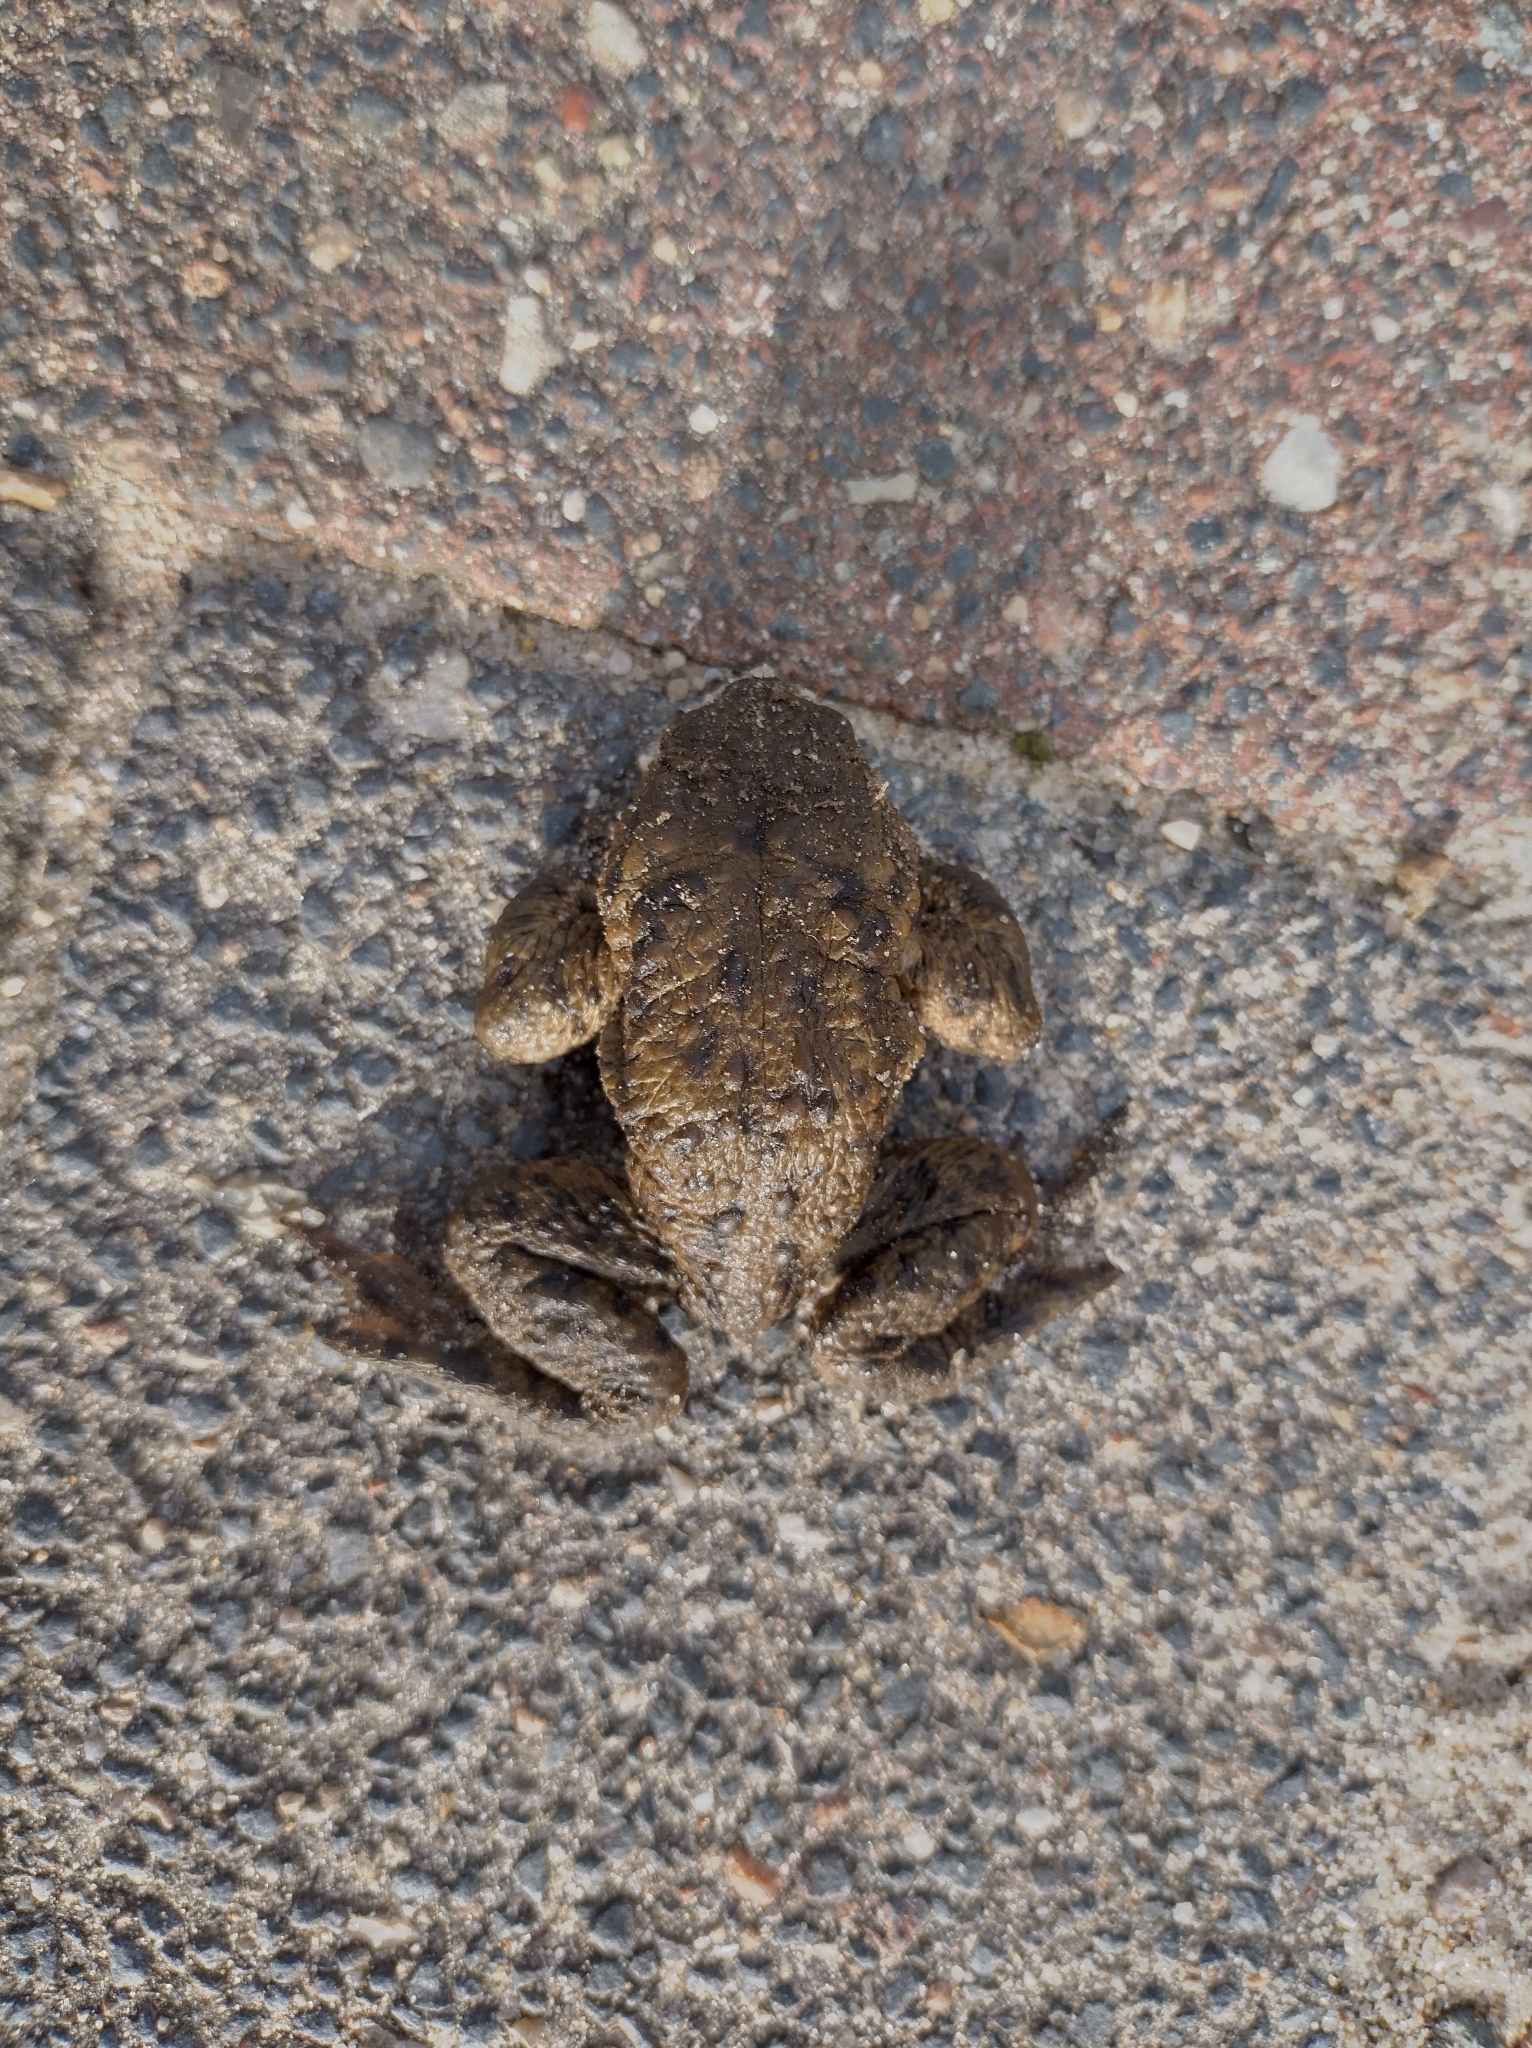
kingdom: Animalia
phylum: Chordata
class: Amphibia
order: Anura
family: Bufonidae
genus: Bufo
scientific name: Bufo bufo
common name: Common toad
